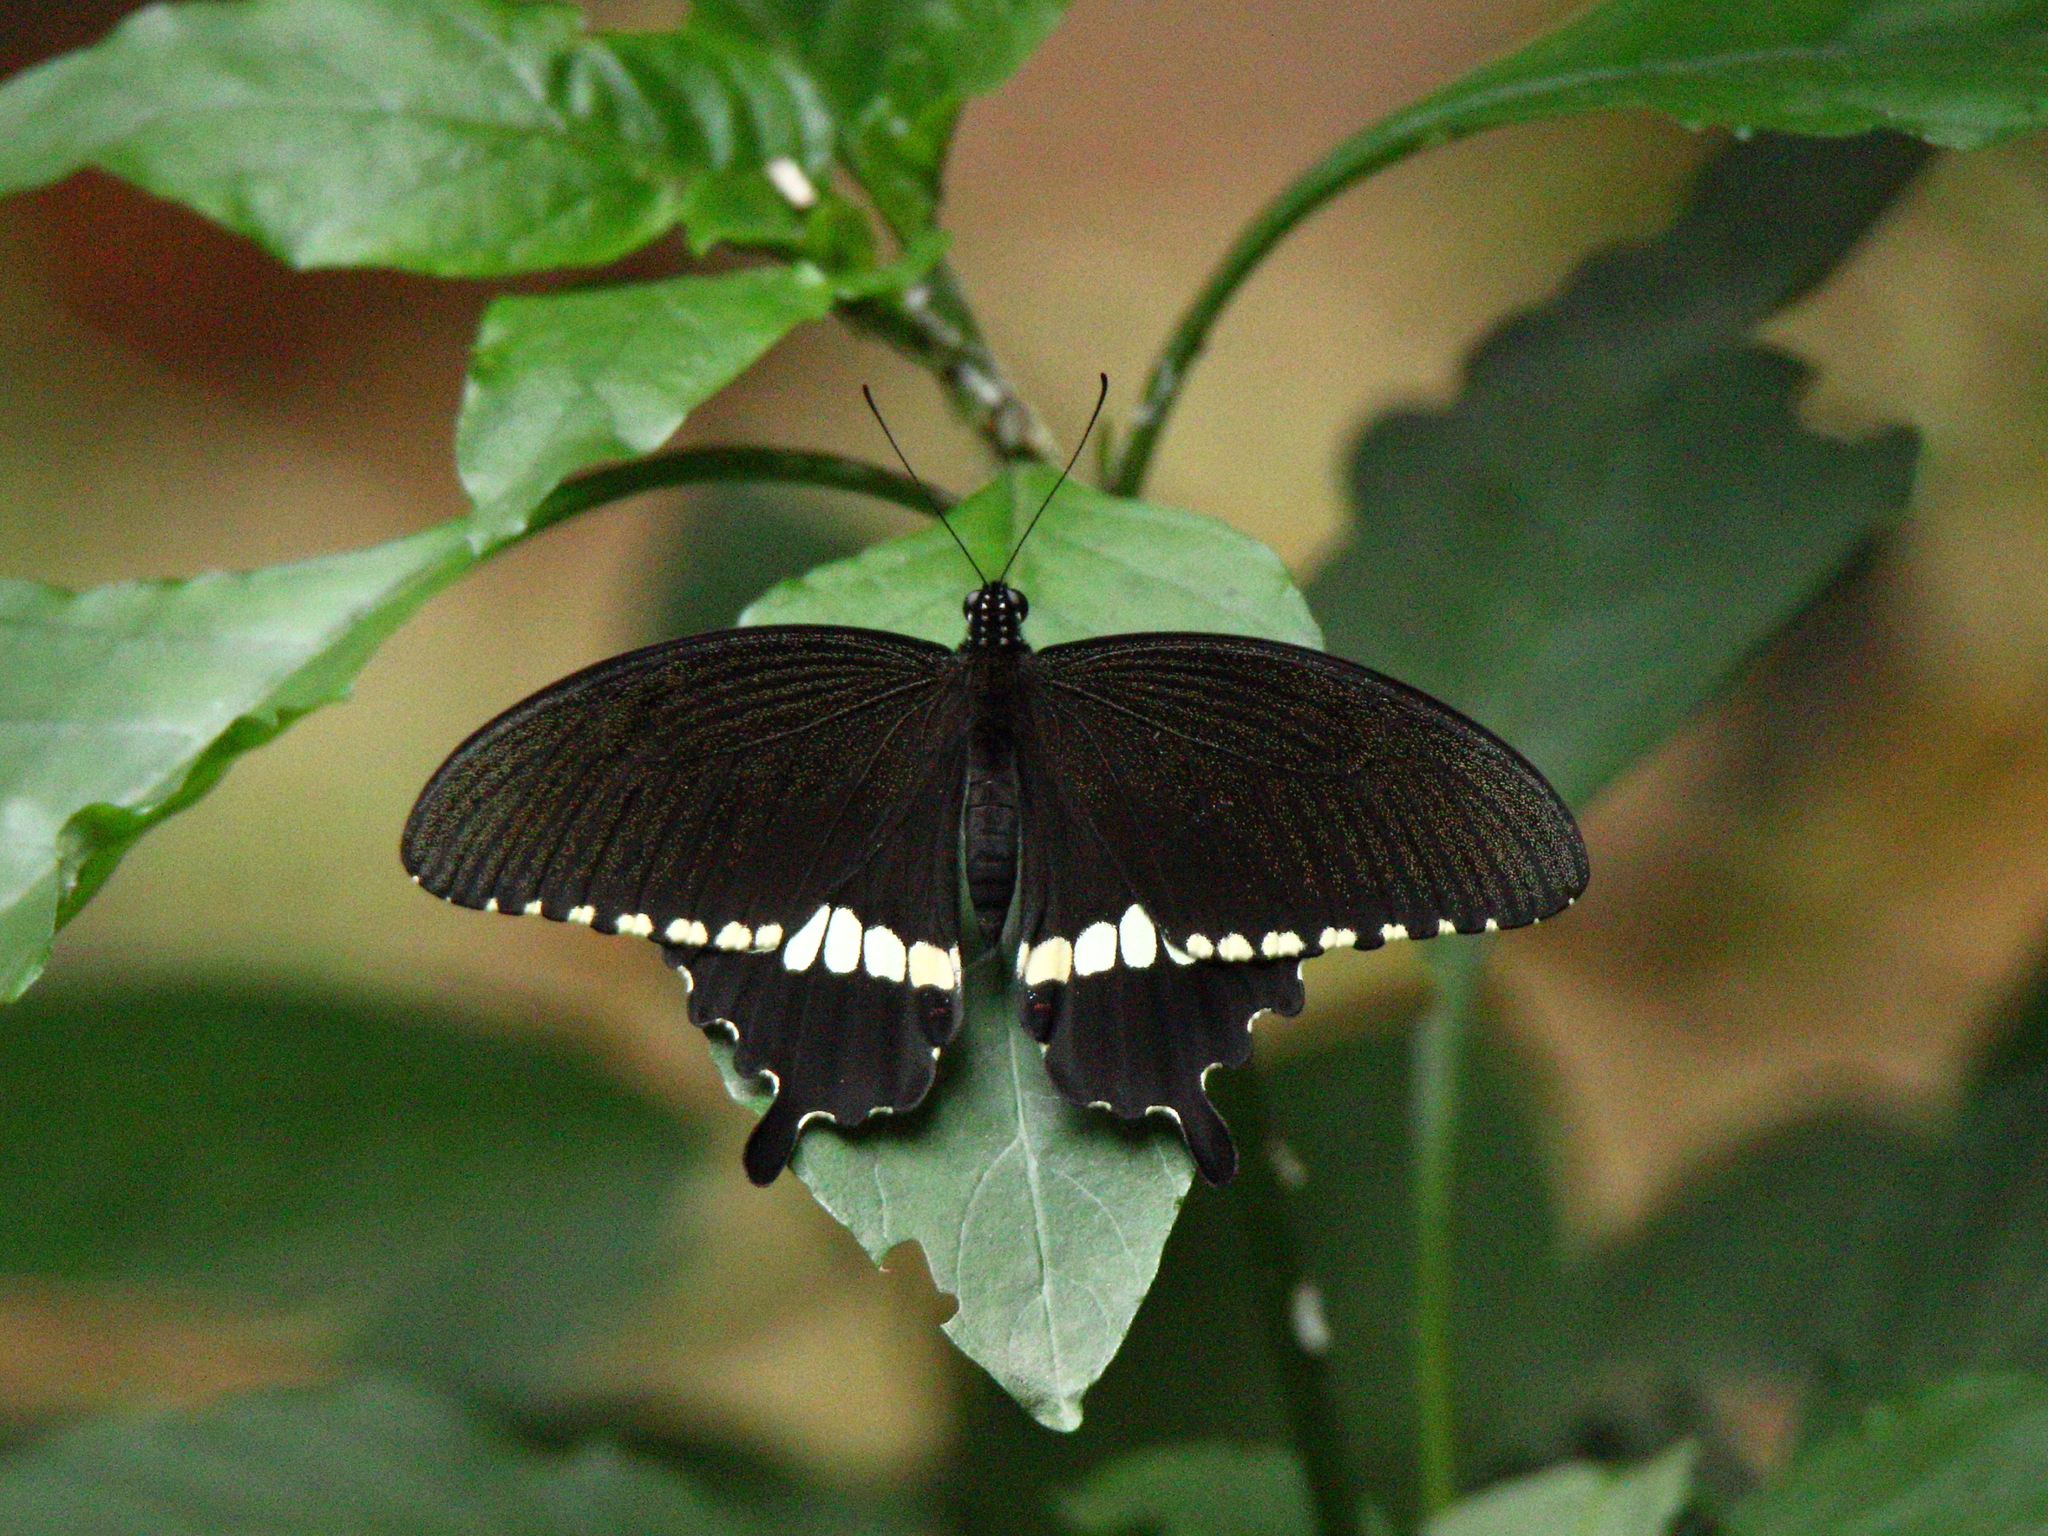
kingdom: Animalia
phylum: Arthropoda
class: Insecta
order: Lepidoptera
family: Papilionidae
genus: Papilio
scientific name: Papilio polytes
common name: Common mormon
